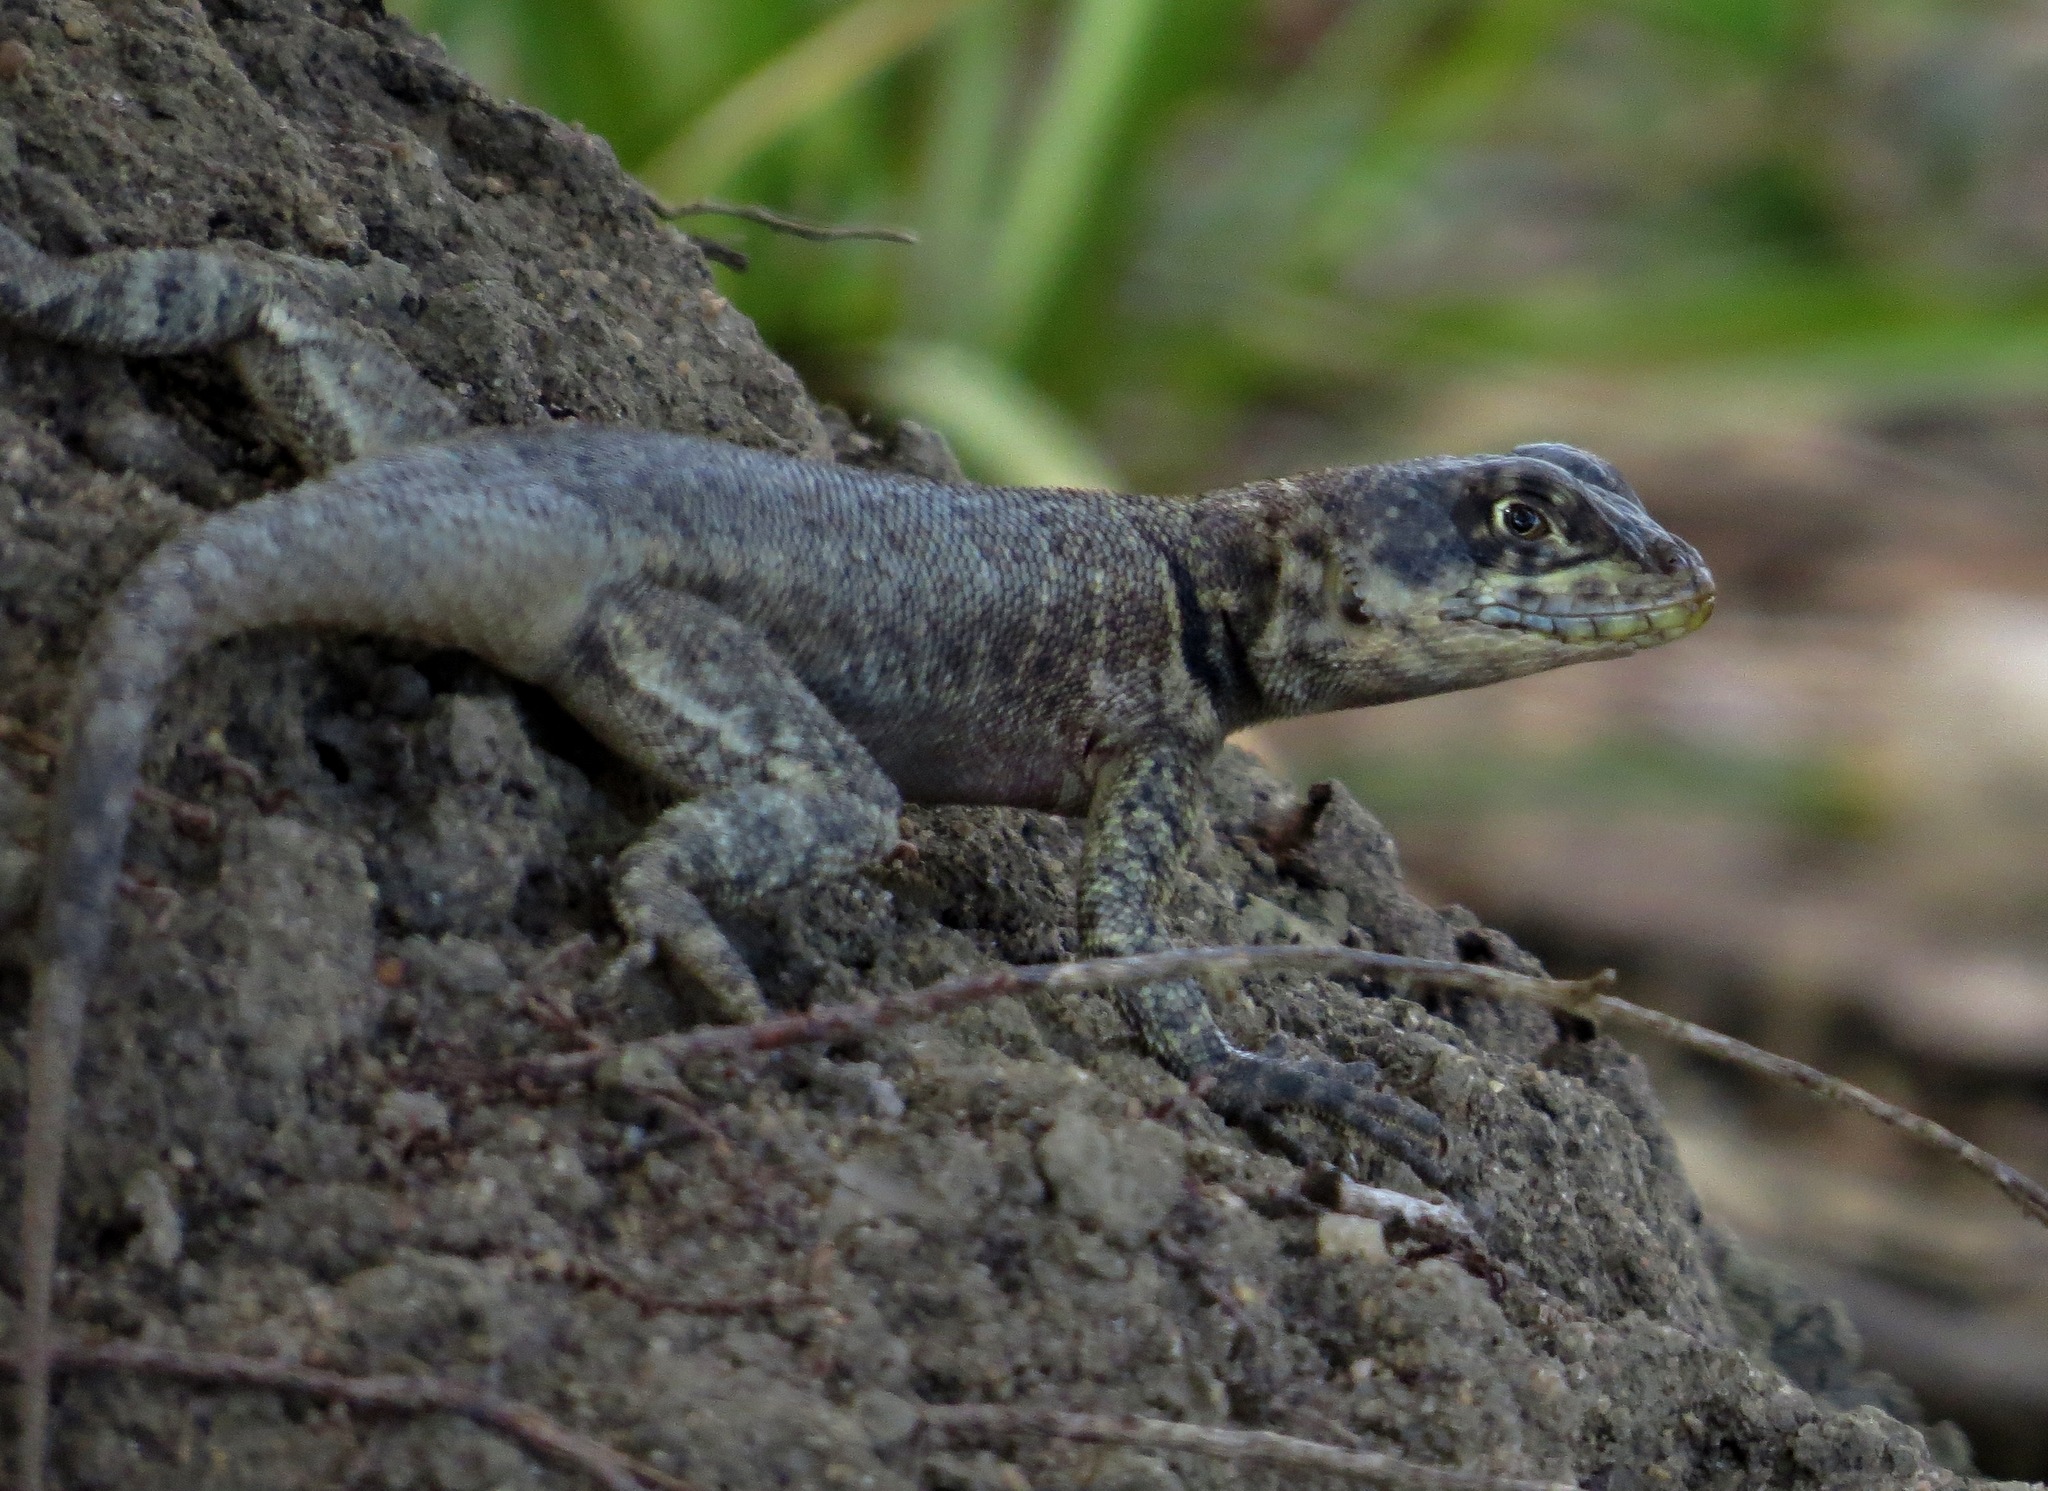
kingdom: Animalia
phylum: Chordata
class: Squamata
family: Tropiduridae
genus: Tropidurus
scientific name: Tropidurus hispidus
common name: Peters' lava lizard
